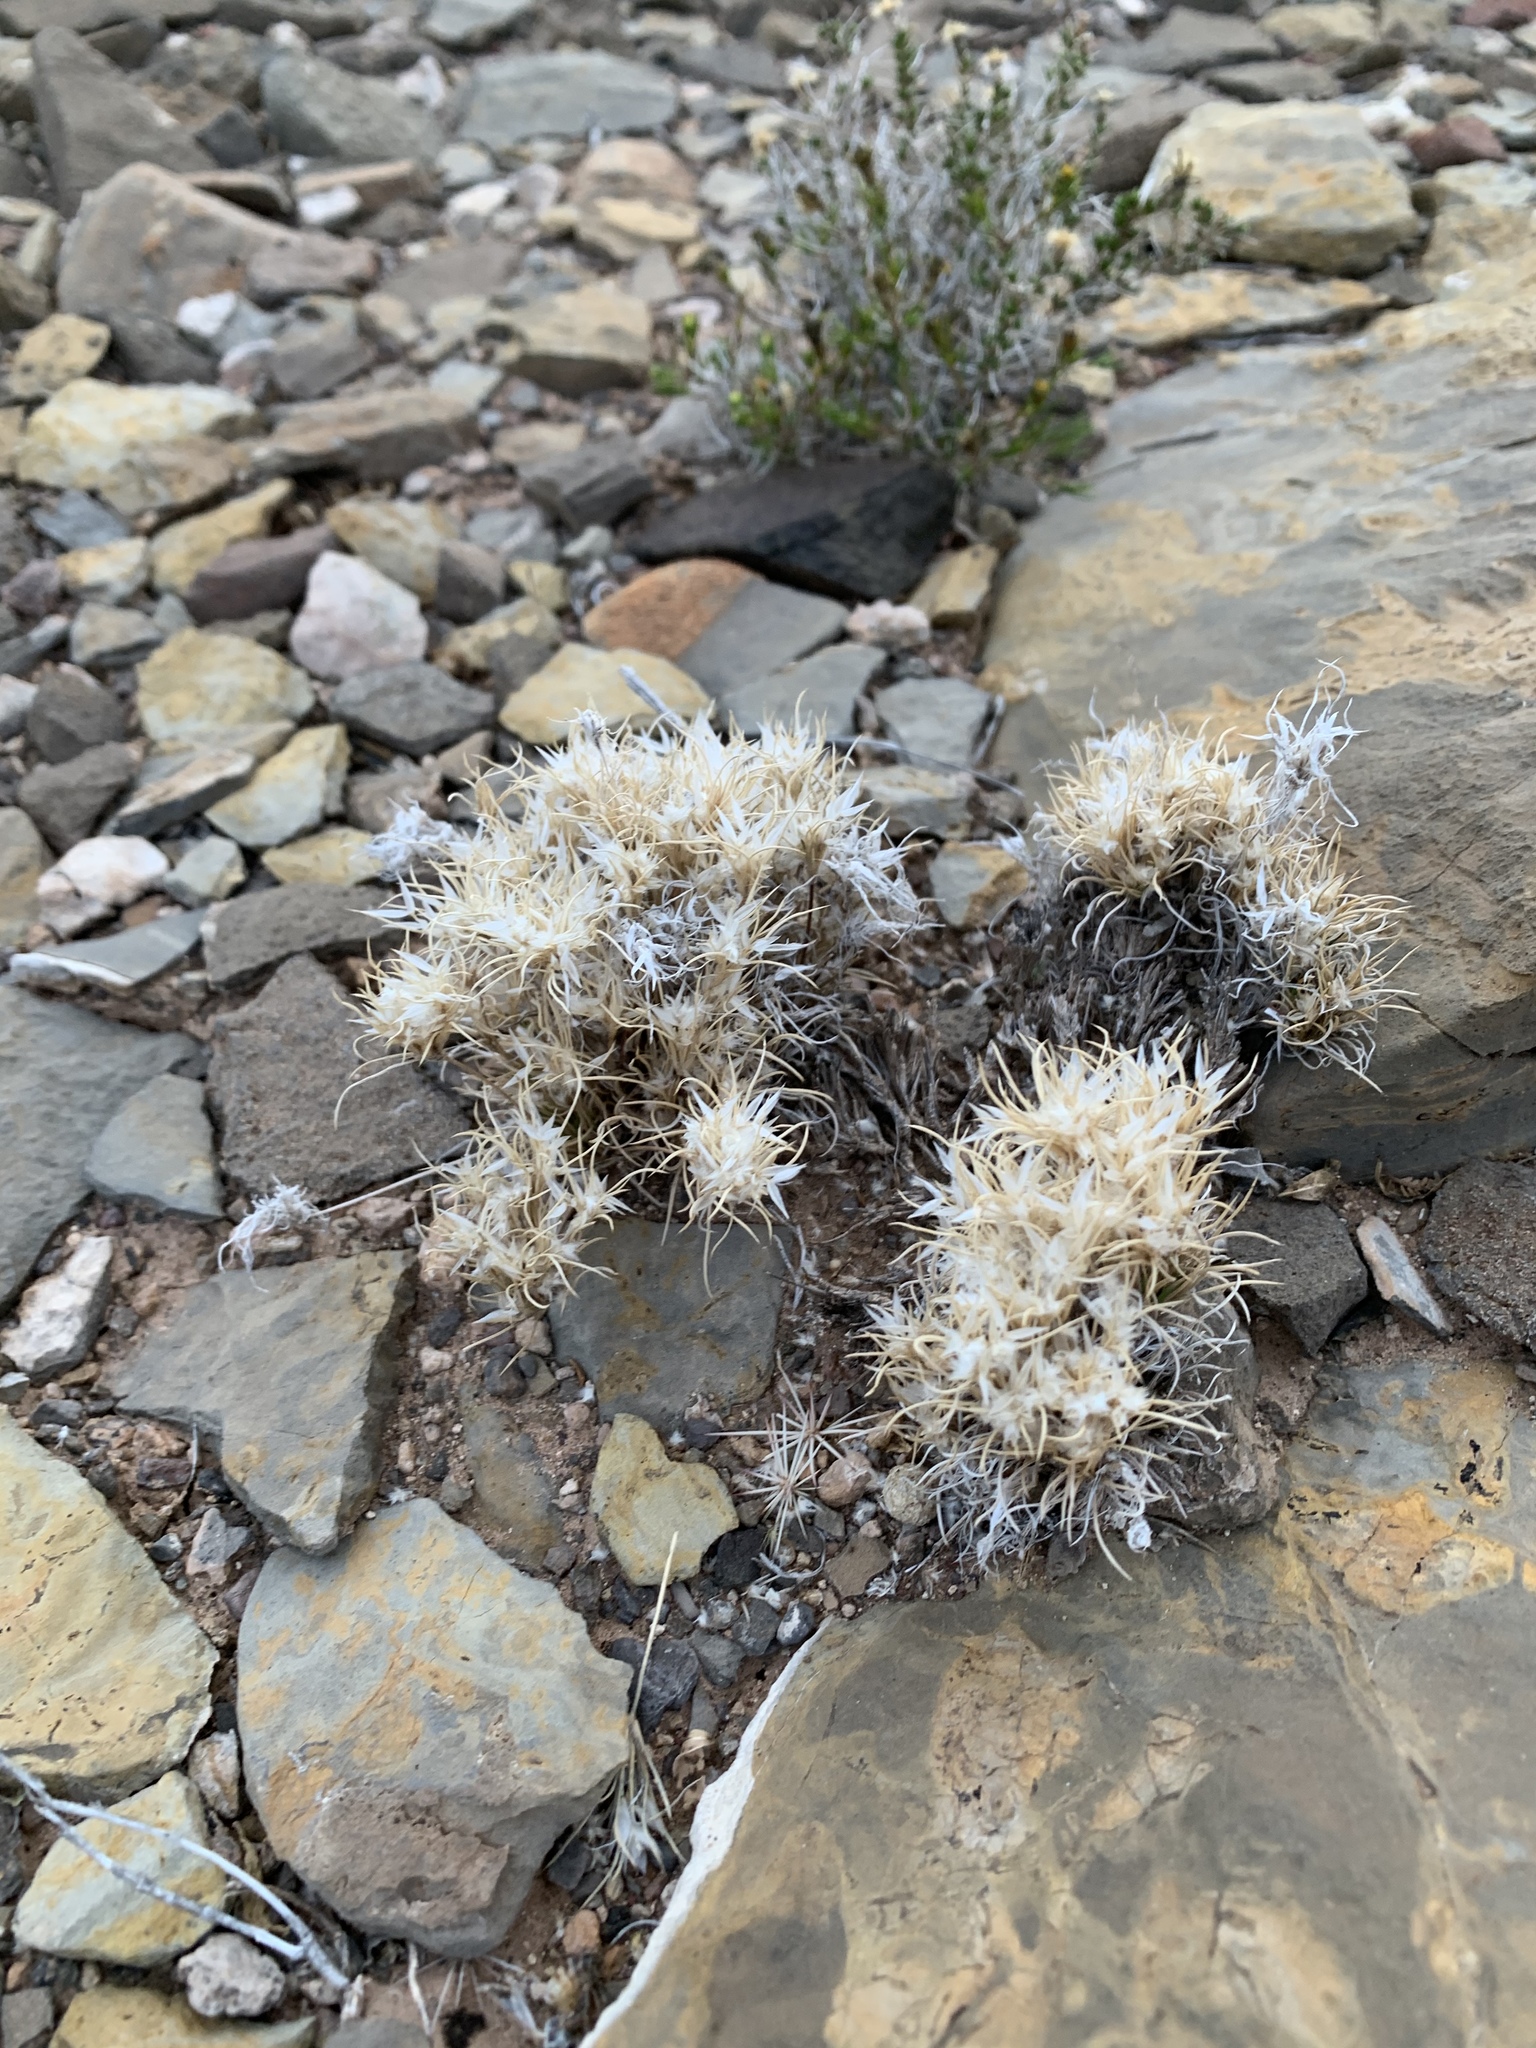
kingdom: Plantae
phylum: Tracheophyta
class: Liliopsida
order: Poales
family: Poaceae
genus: Dasyochloa
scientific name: Dasyochloa pulchella
